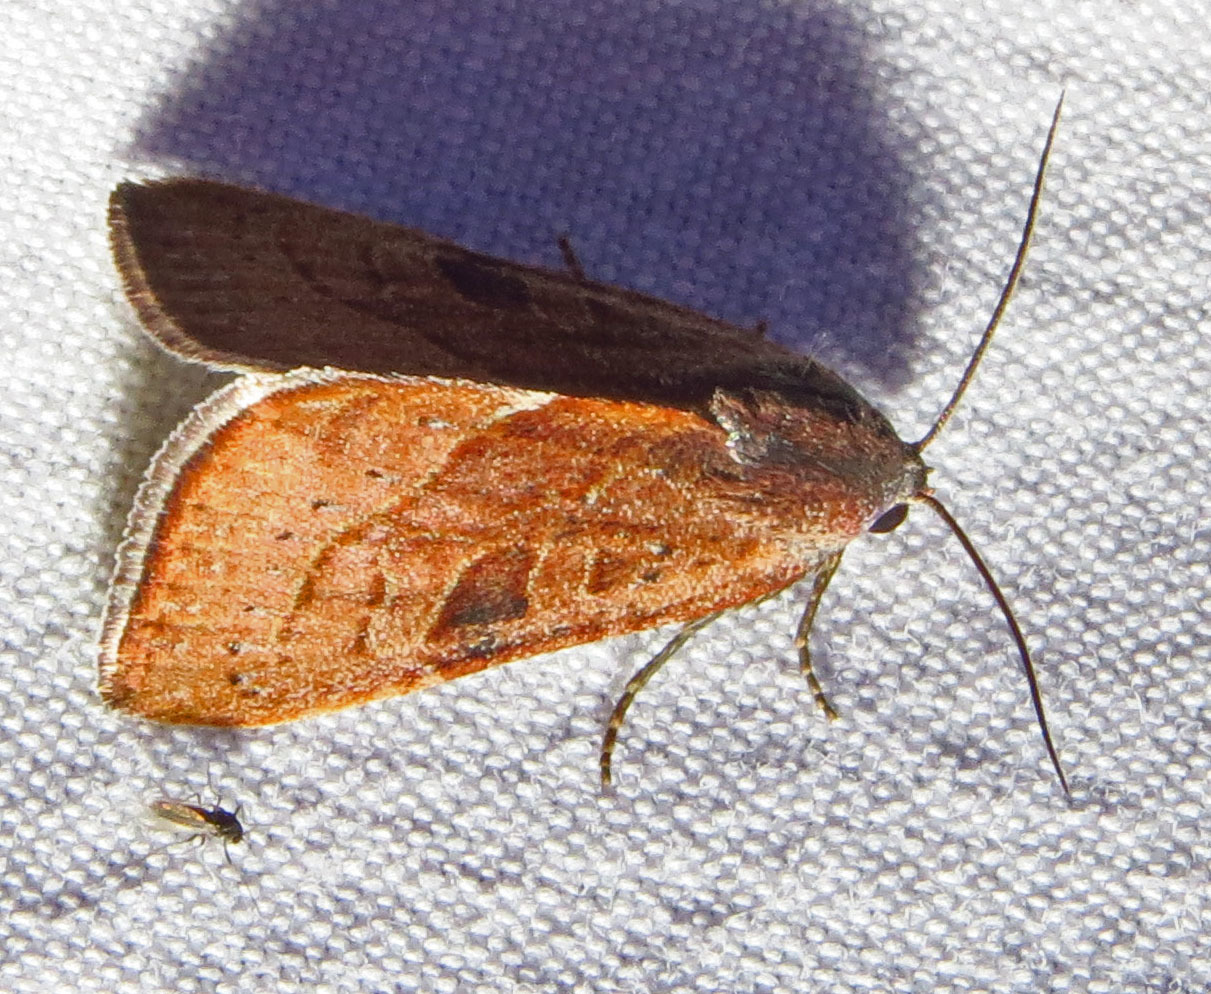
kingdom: Animalia
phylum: Arthropoda
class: Insecta
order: Lepidoptera
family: Noctuidae
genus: Galgula
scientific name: Galgula partita
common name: Wedgeling
